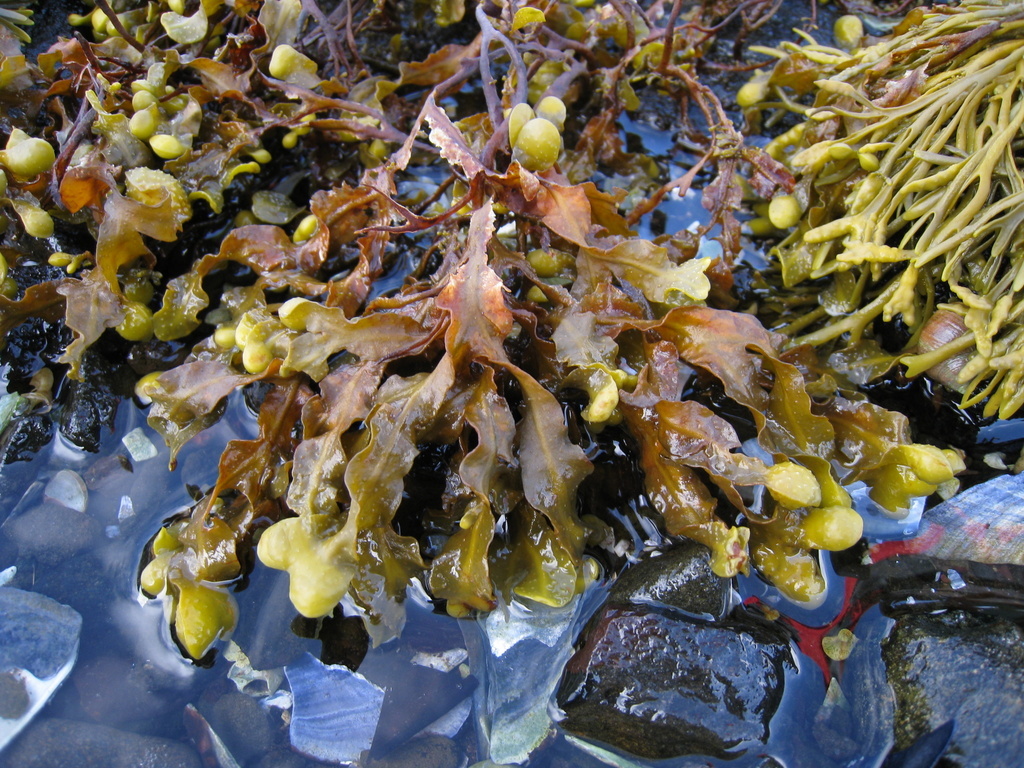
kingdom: Chromista
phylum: Ochrophyta
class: Phaeophyceae
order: Fucales
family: Fucaceae
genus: Fucus
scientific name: Fucus spiralis
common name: Spiral wrack
